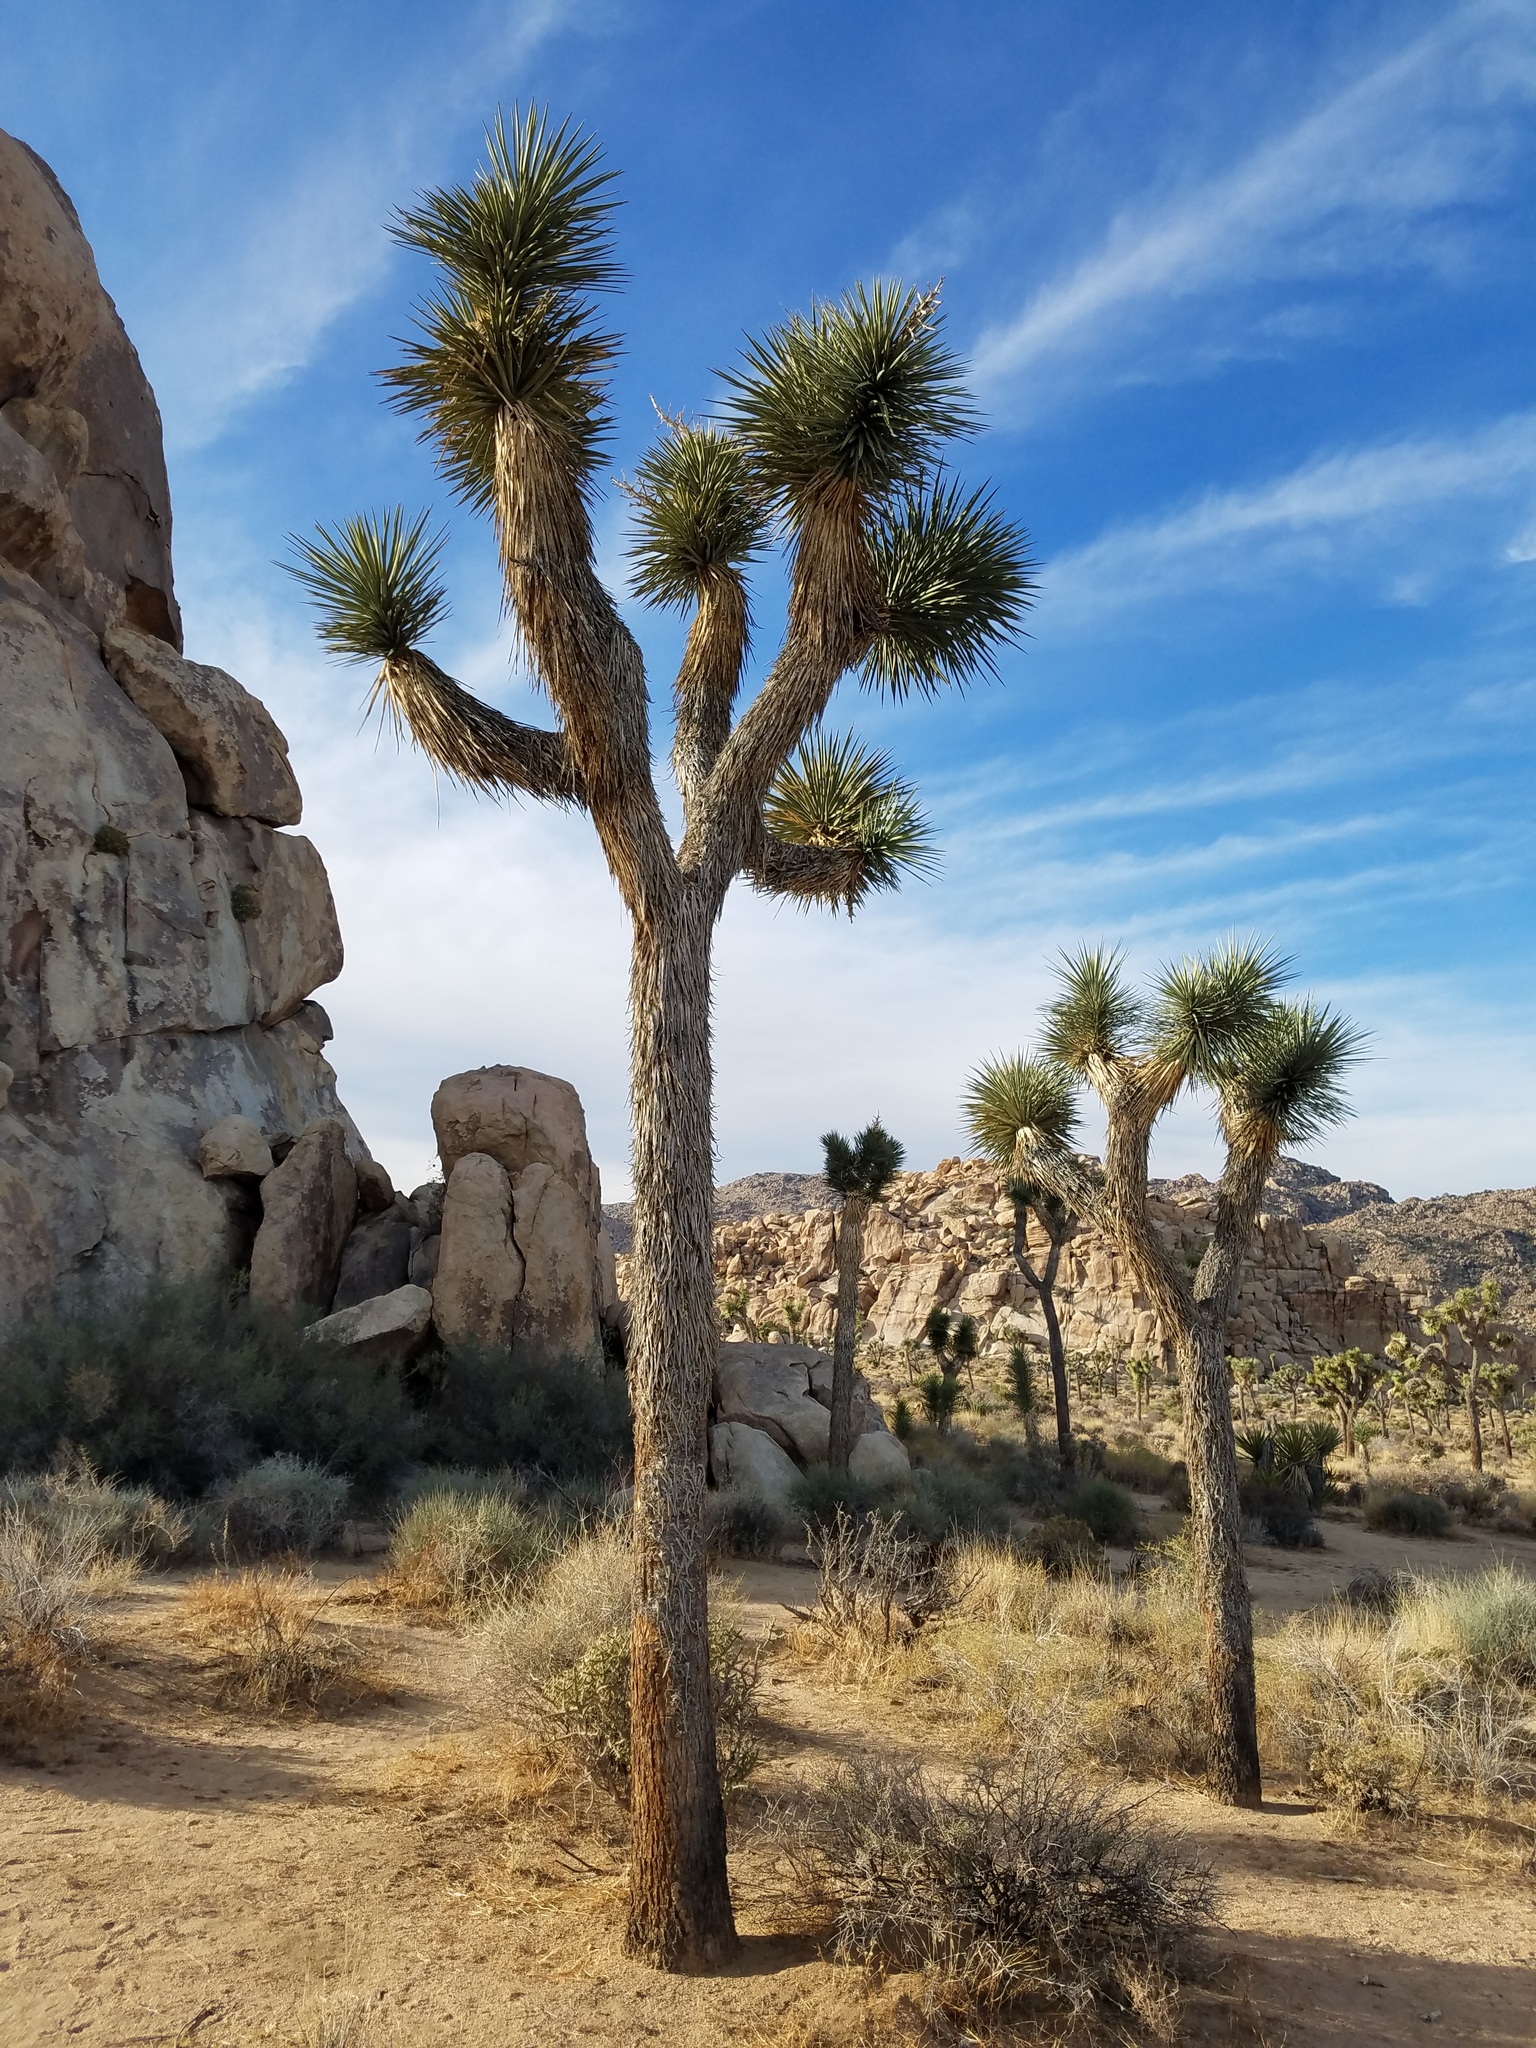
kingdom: Plantae
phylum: Tracheophyta
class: Liliopsida
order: Asparagales
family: Asparagaceae
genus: Yucca
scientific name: Yucca brevifolia
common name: Joshua tree
